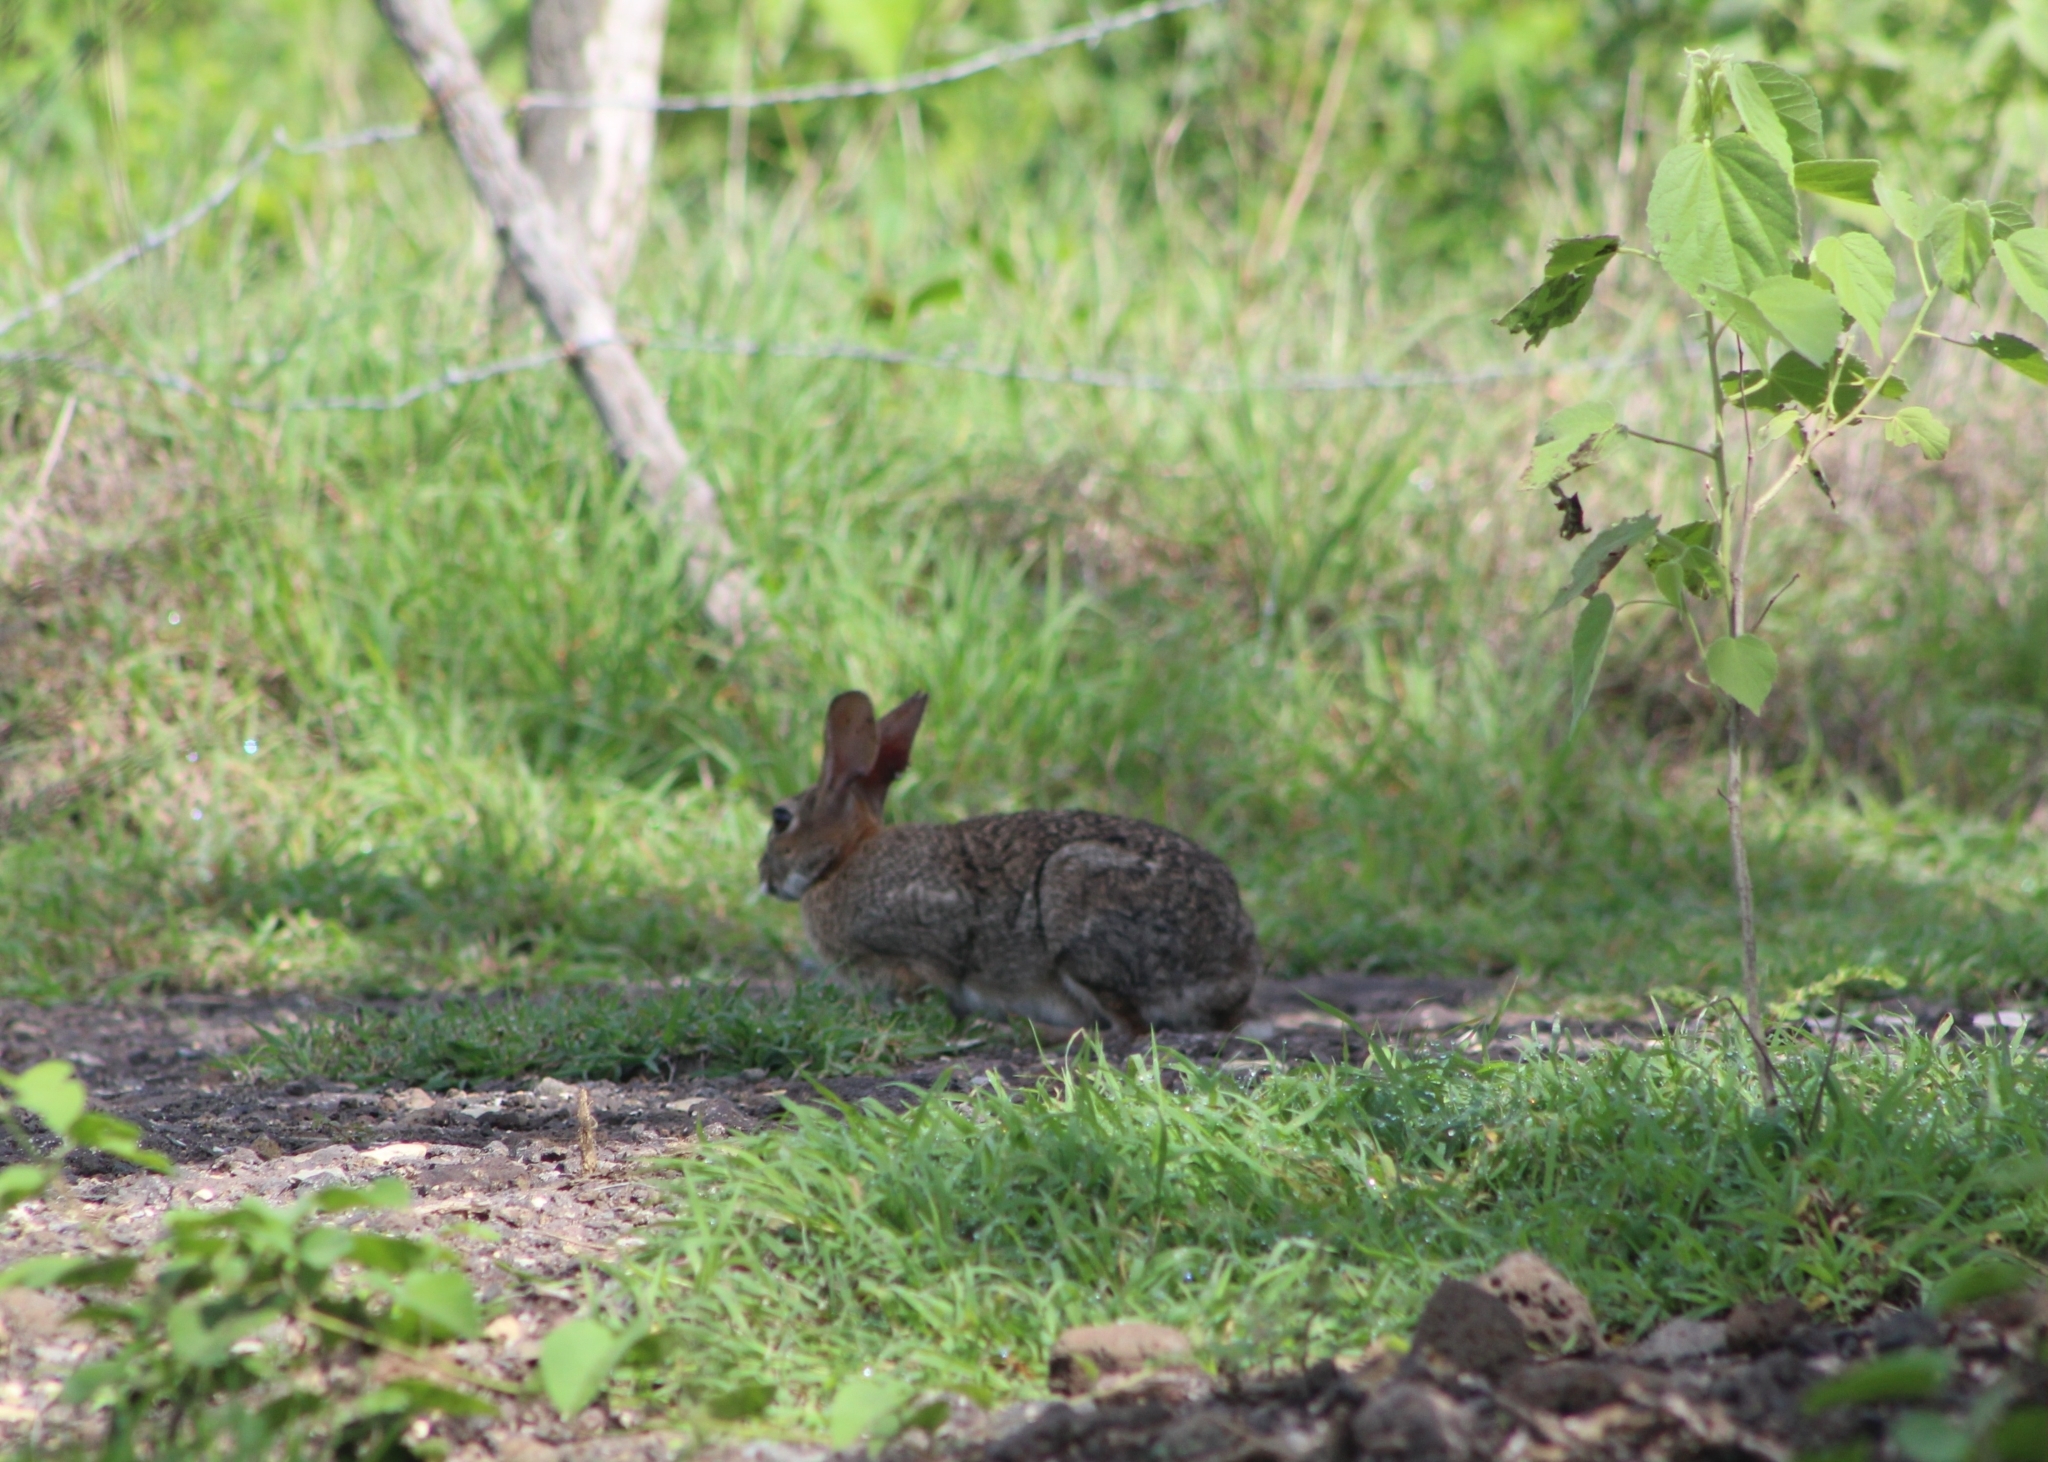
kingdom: Animalia
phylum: Chordata
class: Mammalia
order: Lagomorpha
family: Leporidae
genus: Sylvilagus
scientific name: Sylvilagus floridanus
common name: Eastern cottontail
